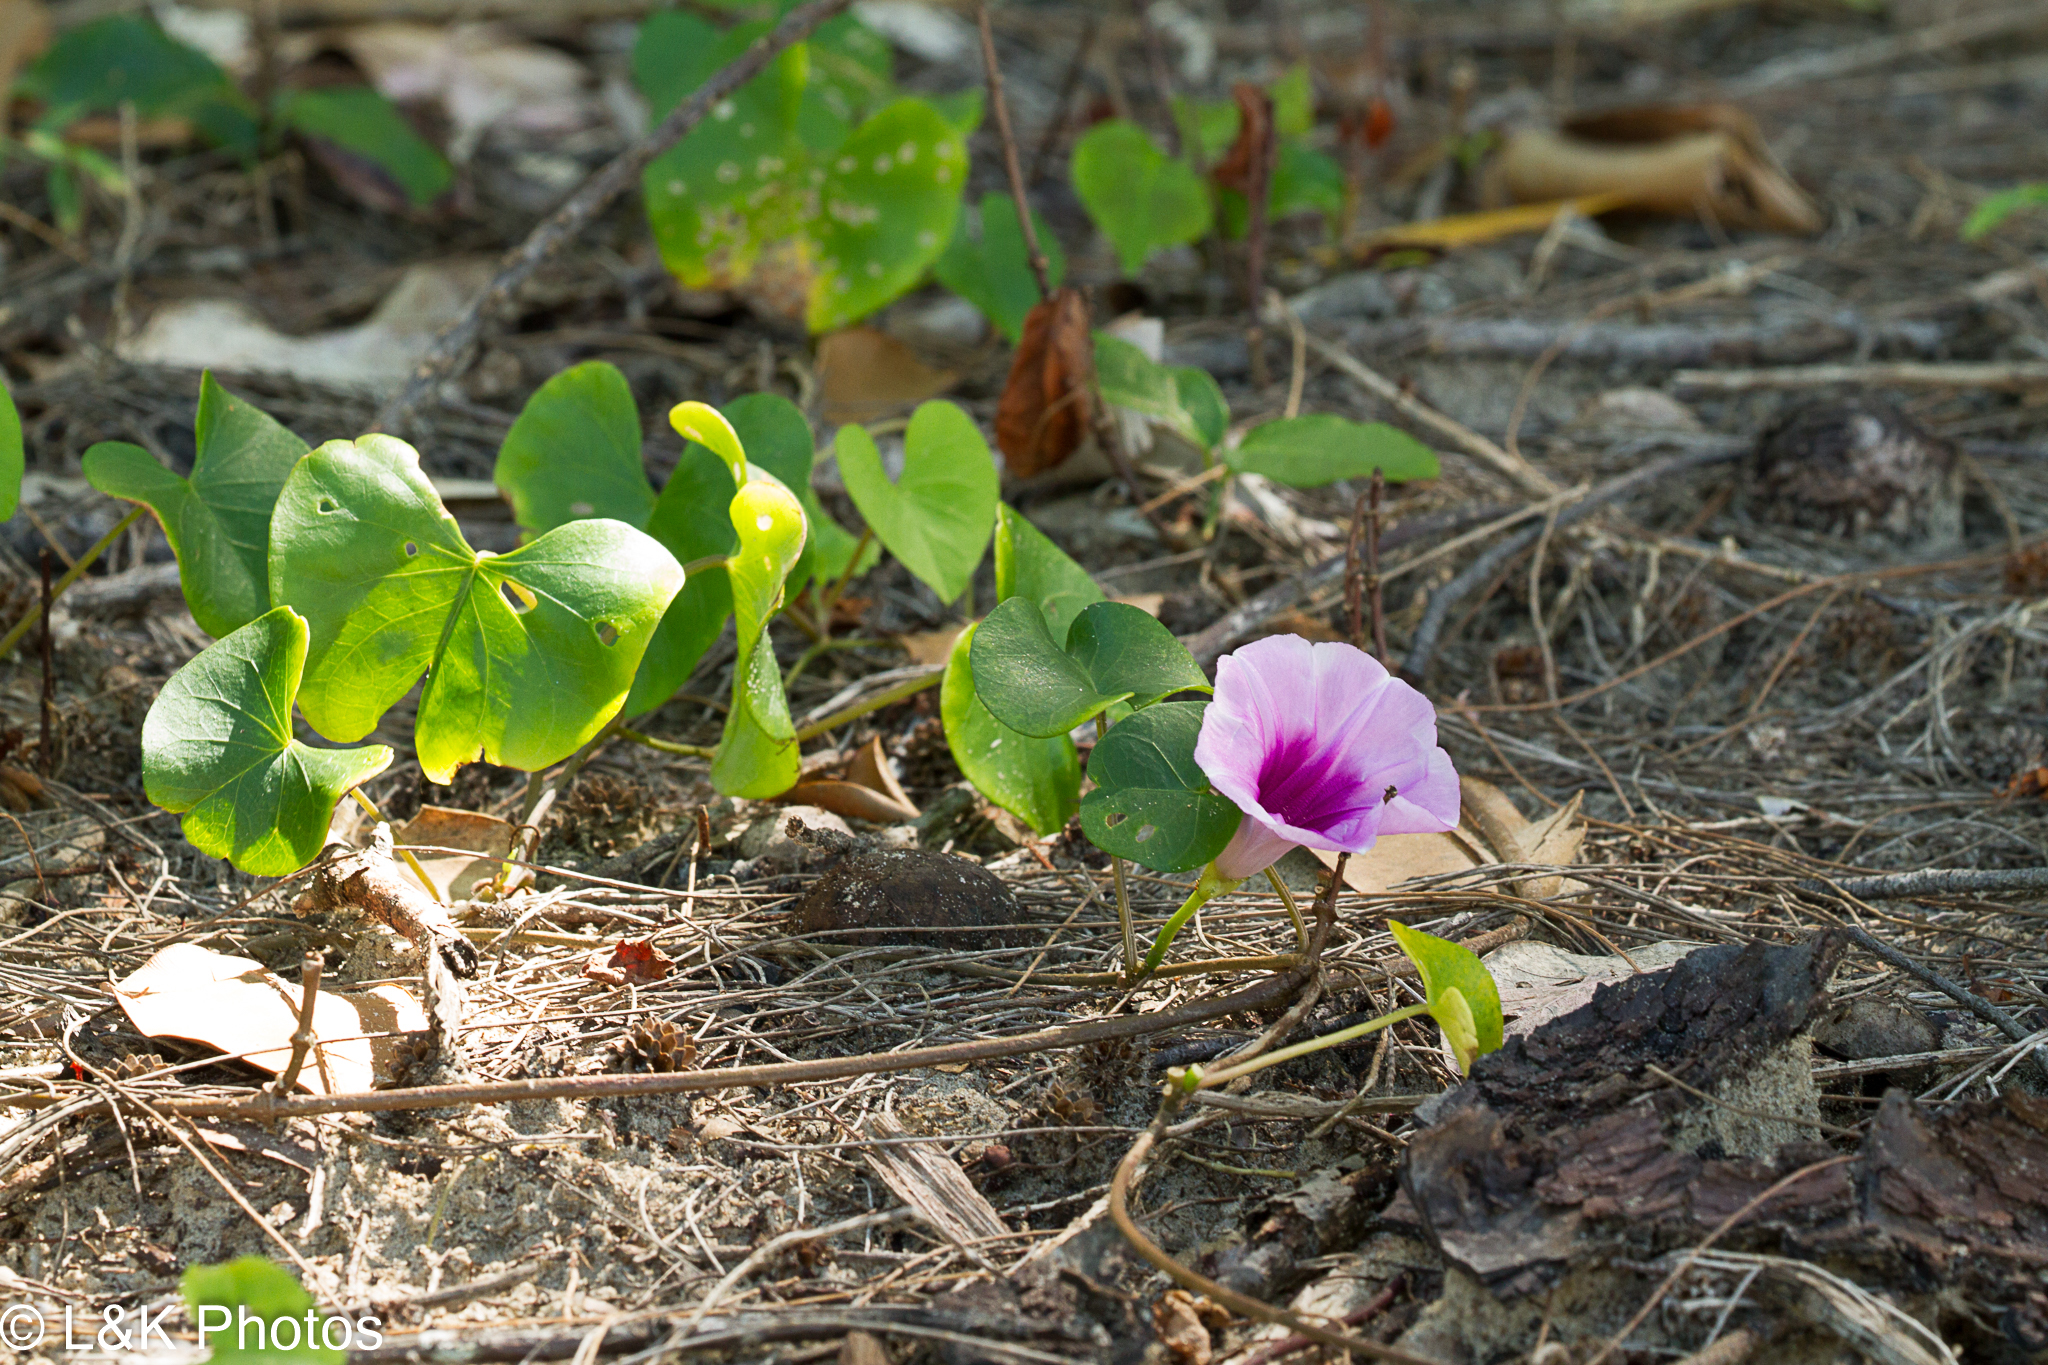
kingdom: Plantae
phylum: Tracheophyta
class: Magnoliopsida
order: Solanales
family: Convolvulaceae
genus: Ipomoea
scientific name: Ipomoea abrupta
